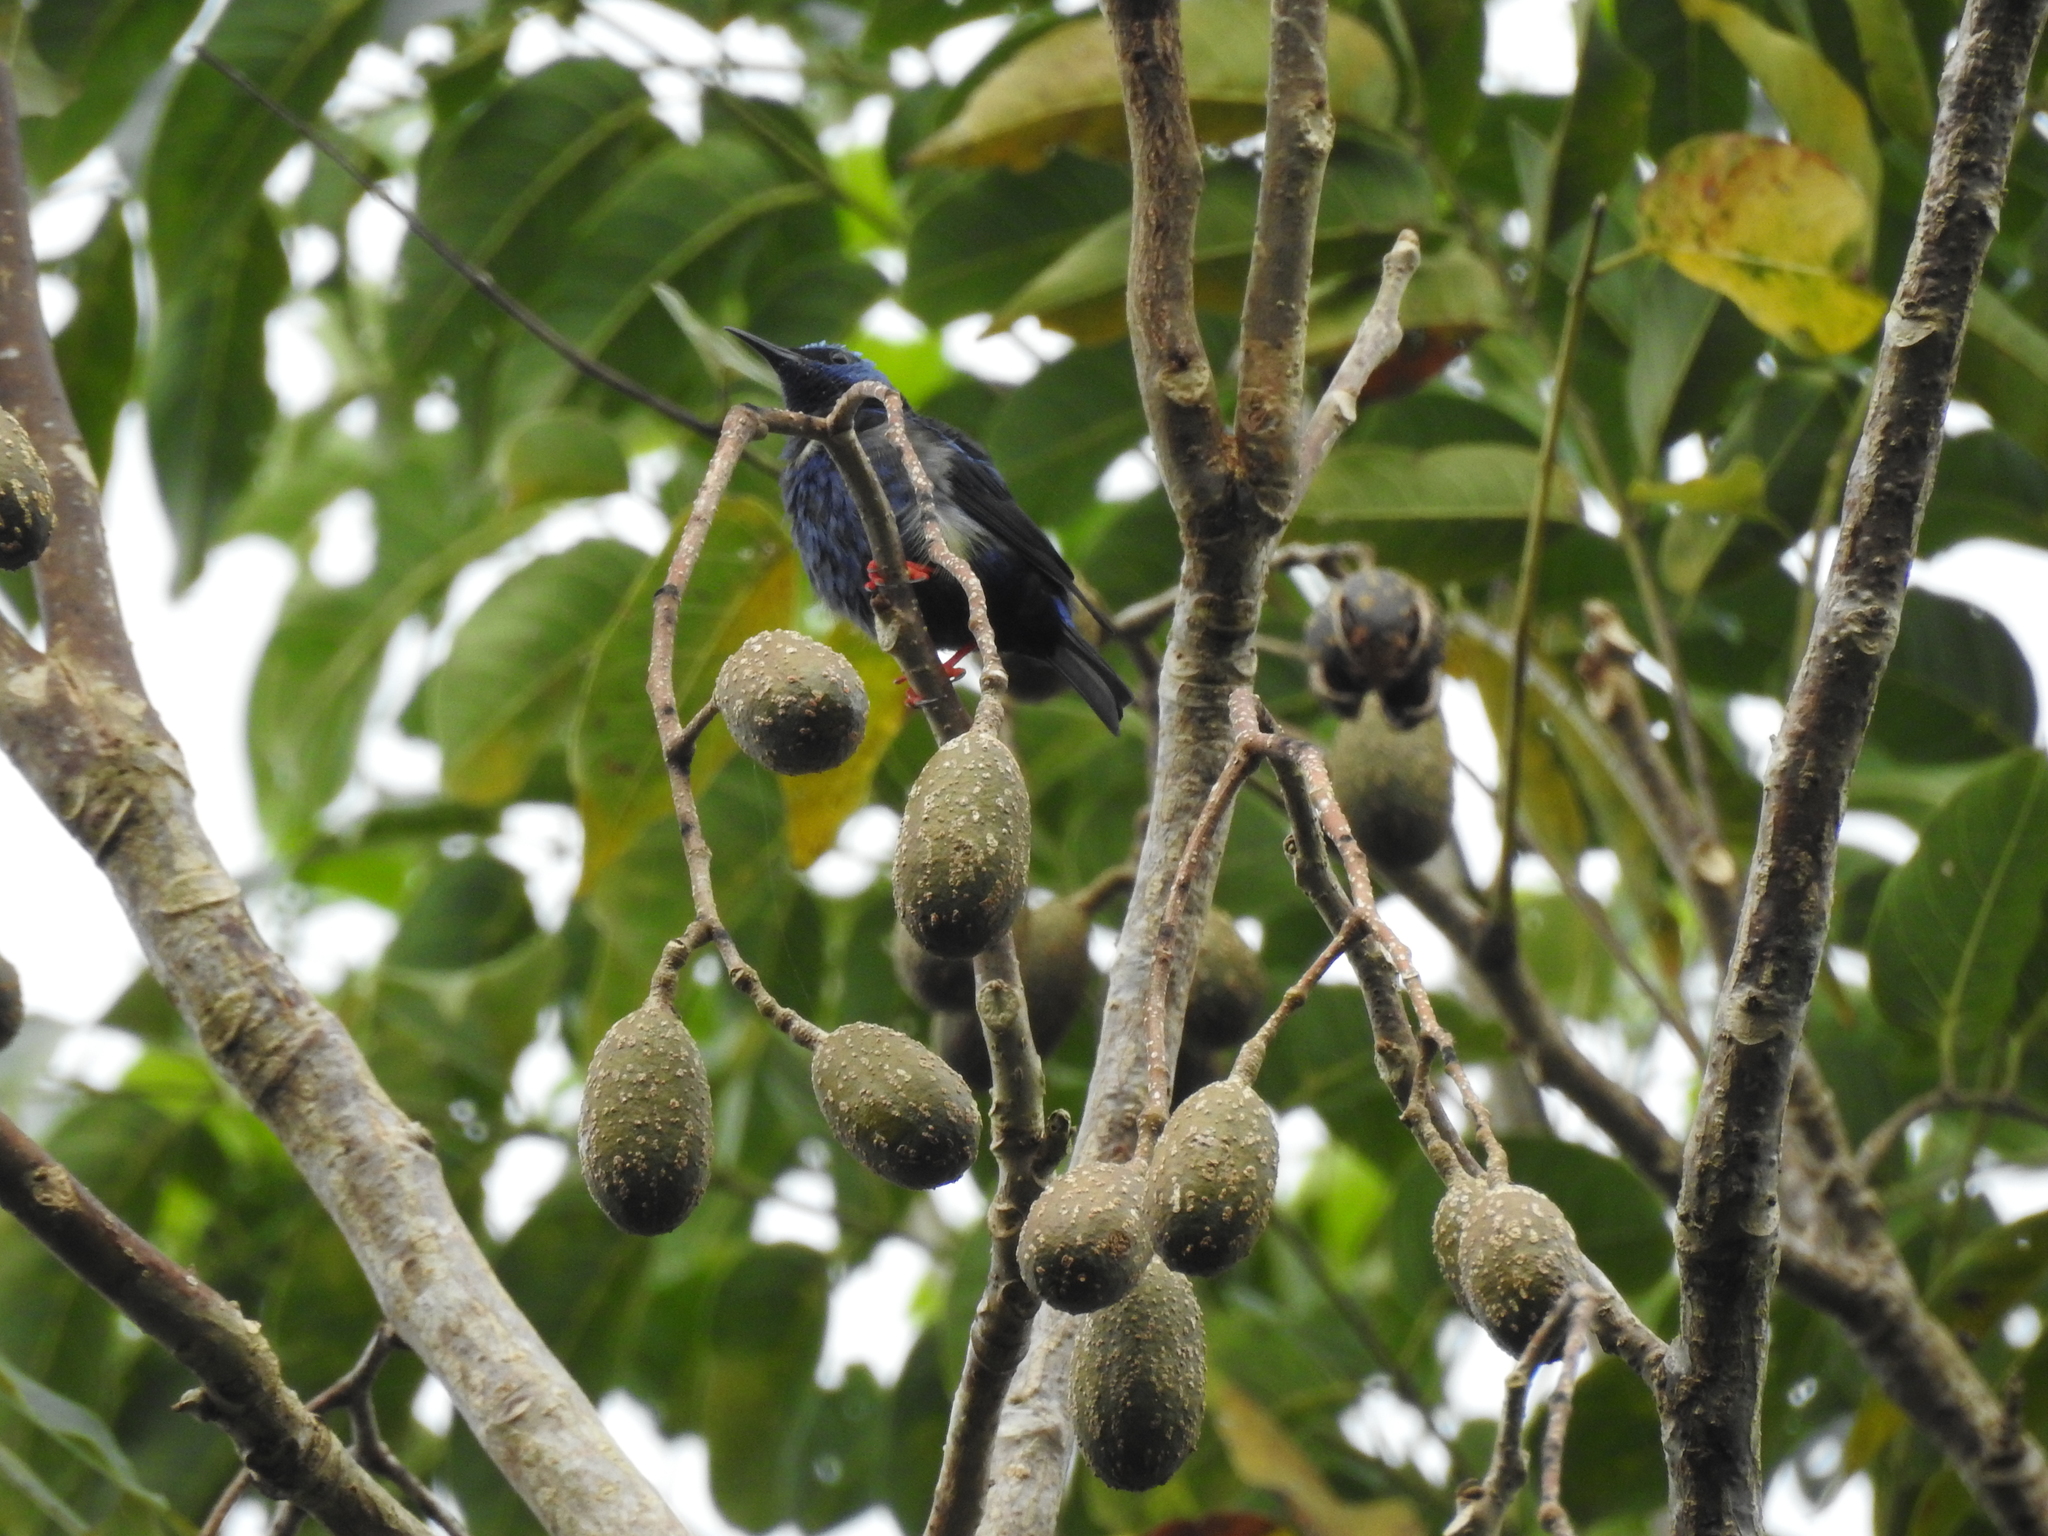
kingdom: Animalia
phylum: Chordata
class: Aves
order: Passeriformes
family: Thraupidae
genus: Cyanerpes
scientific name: Cyanerpes cyaneus
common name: Red-legged honeycreeper
